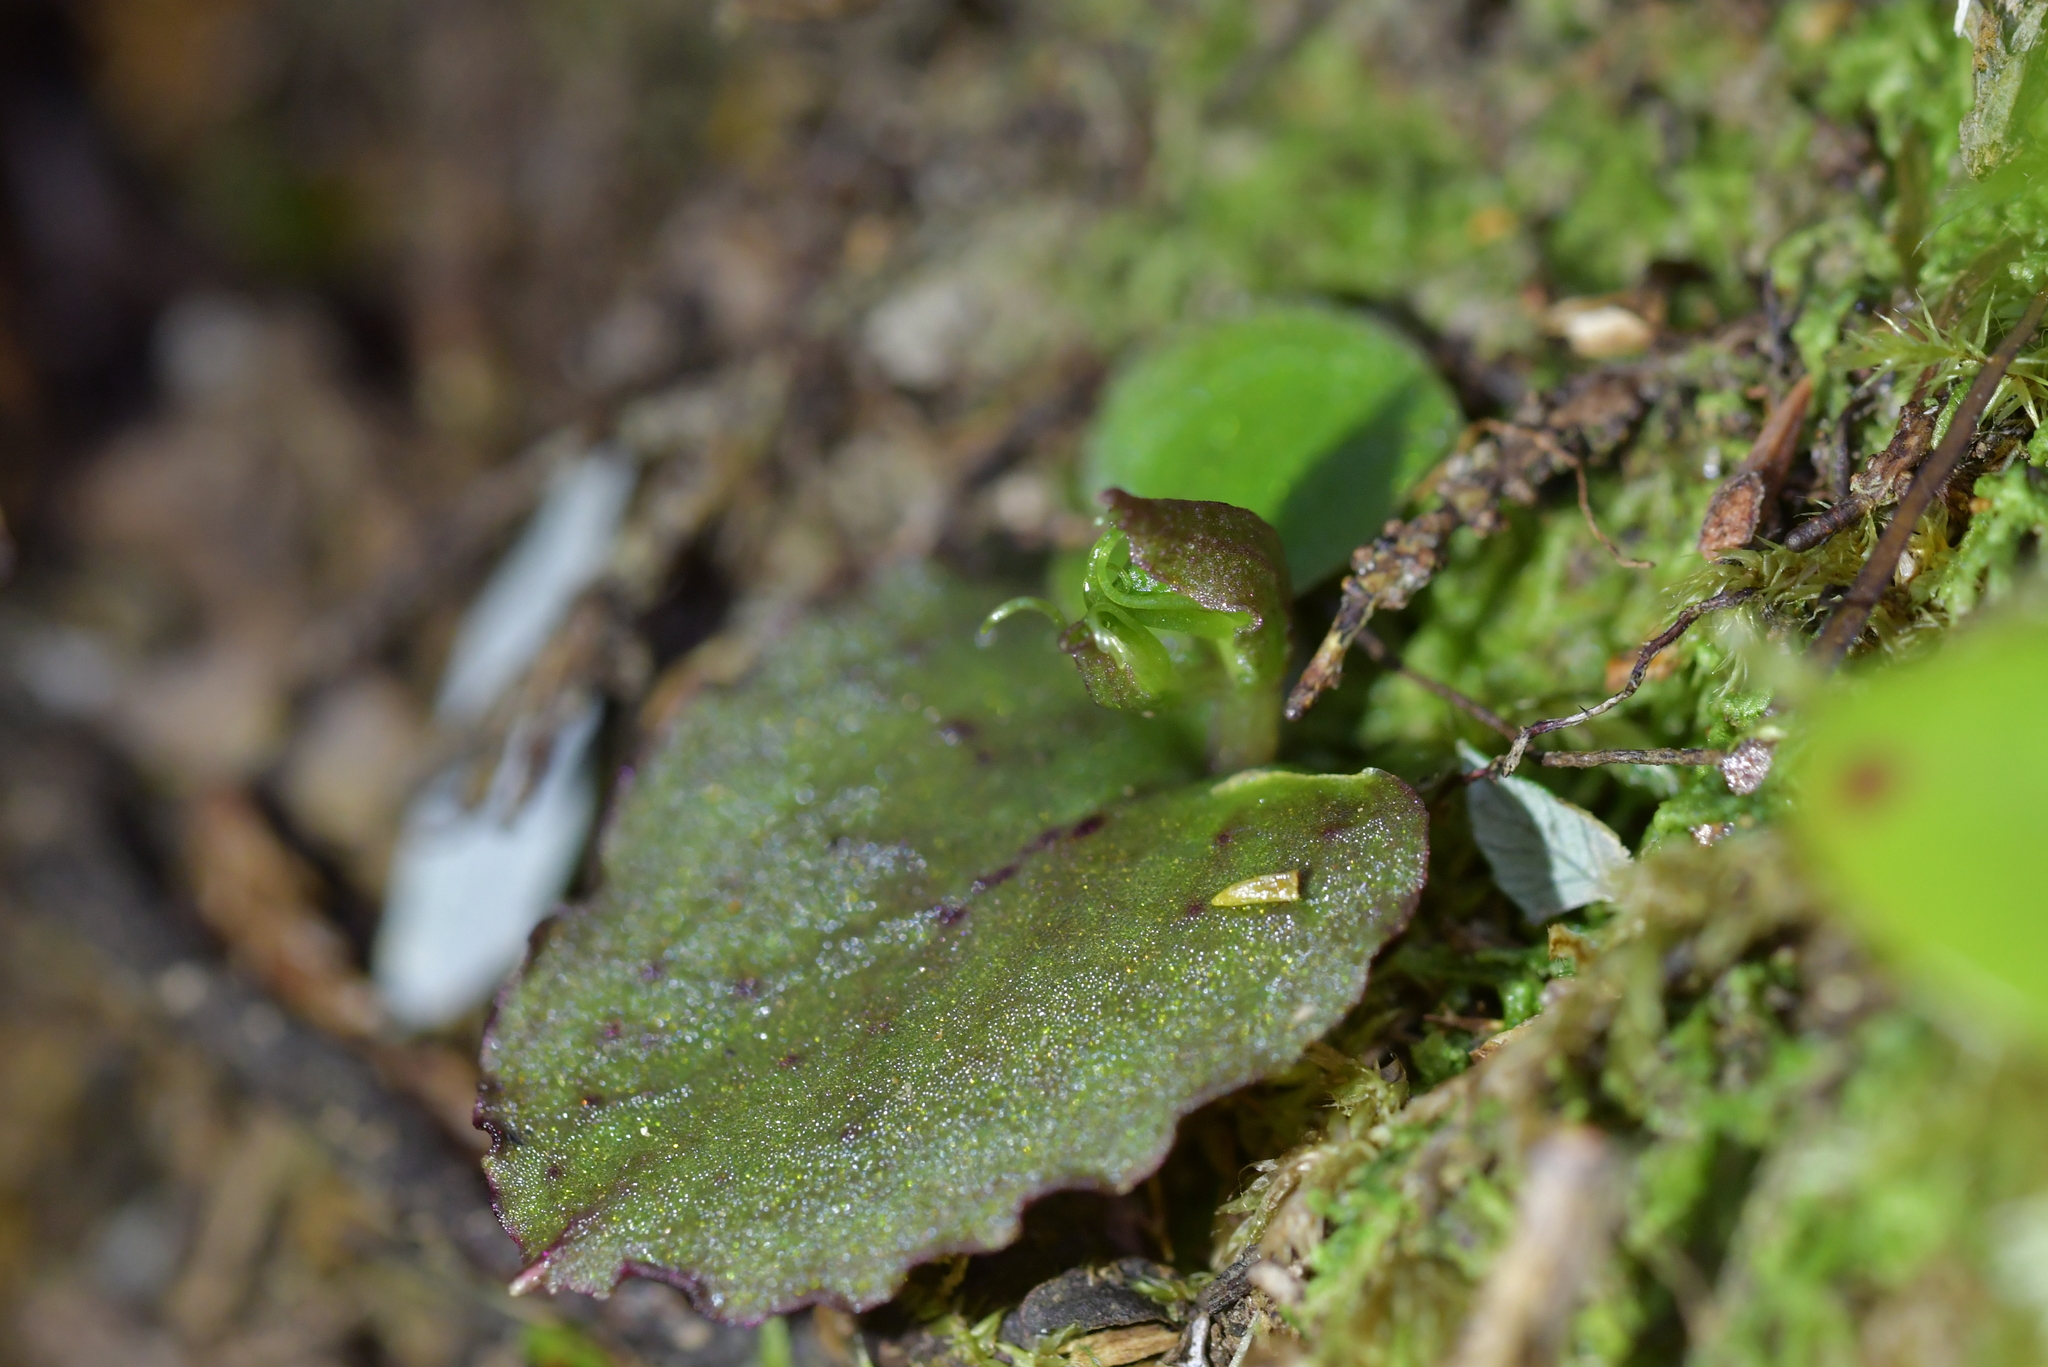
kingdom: Plantae
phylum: Tracheophyta
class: Liliopsida
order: Asparagales
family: Orchidaceae
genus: Corybas
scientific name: Corybas oblongus
